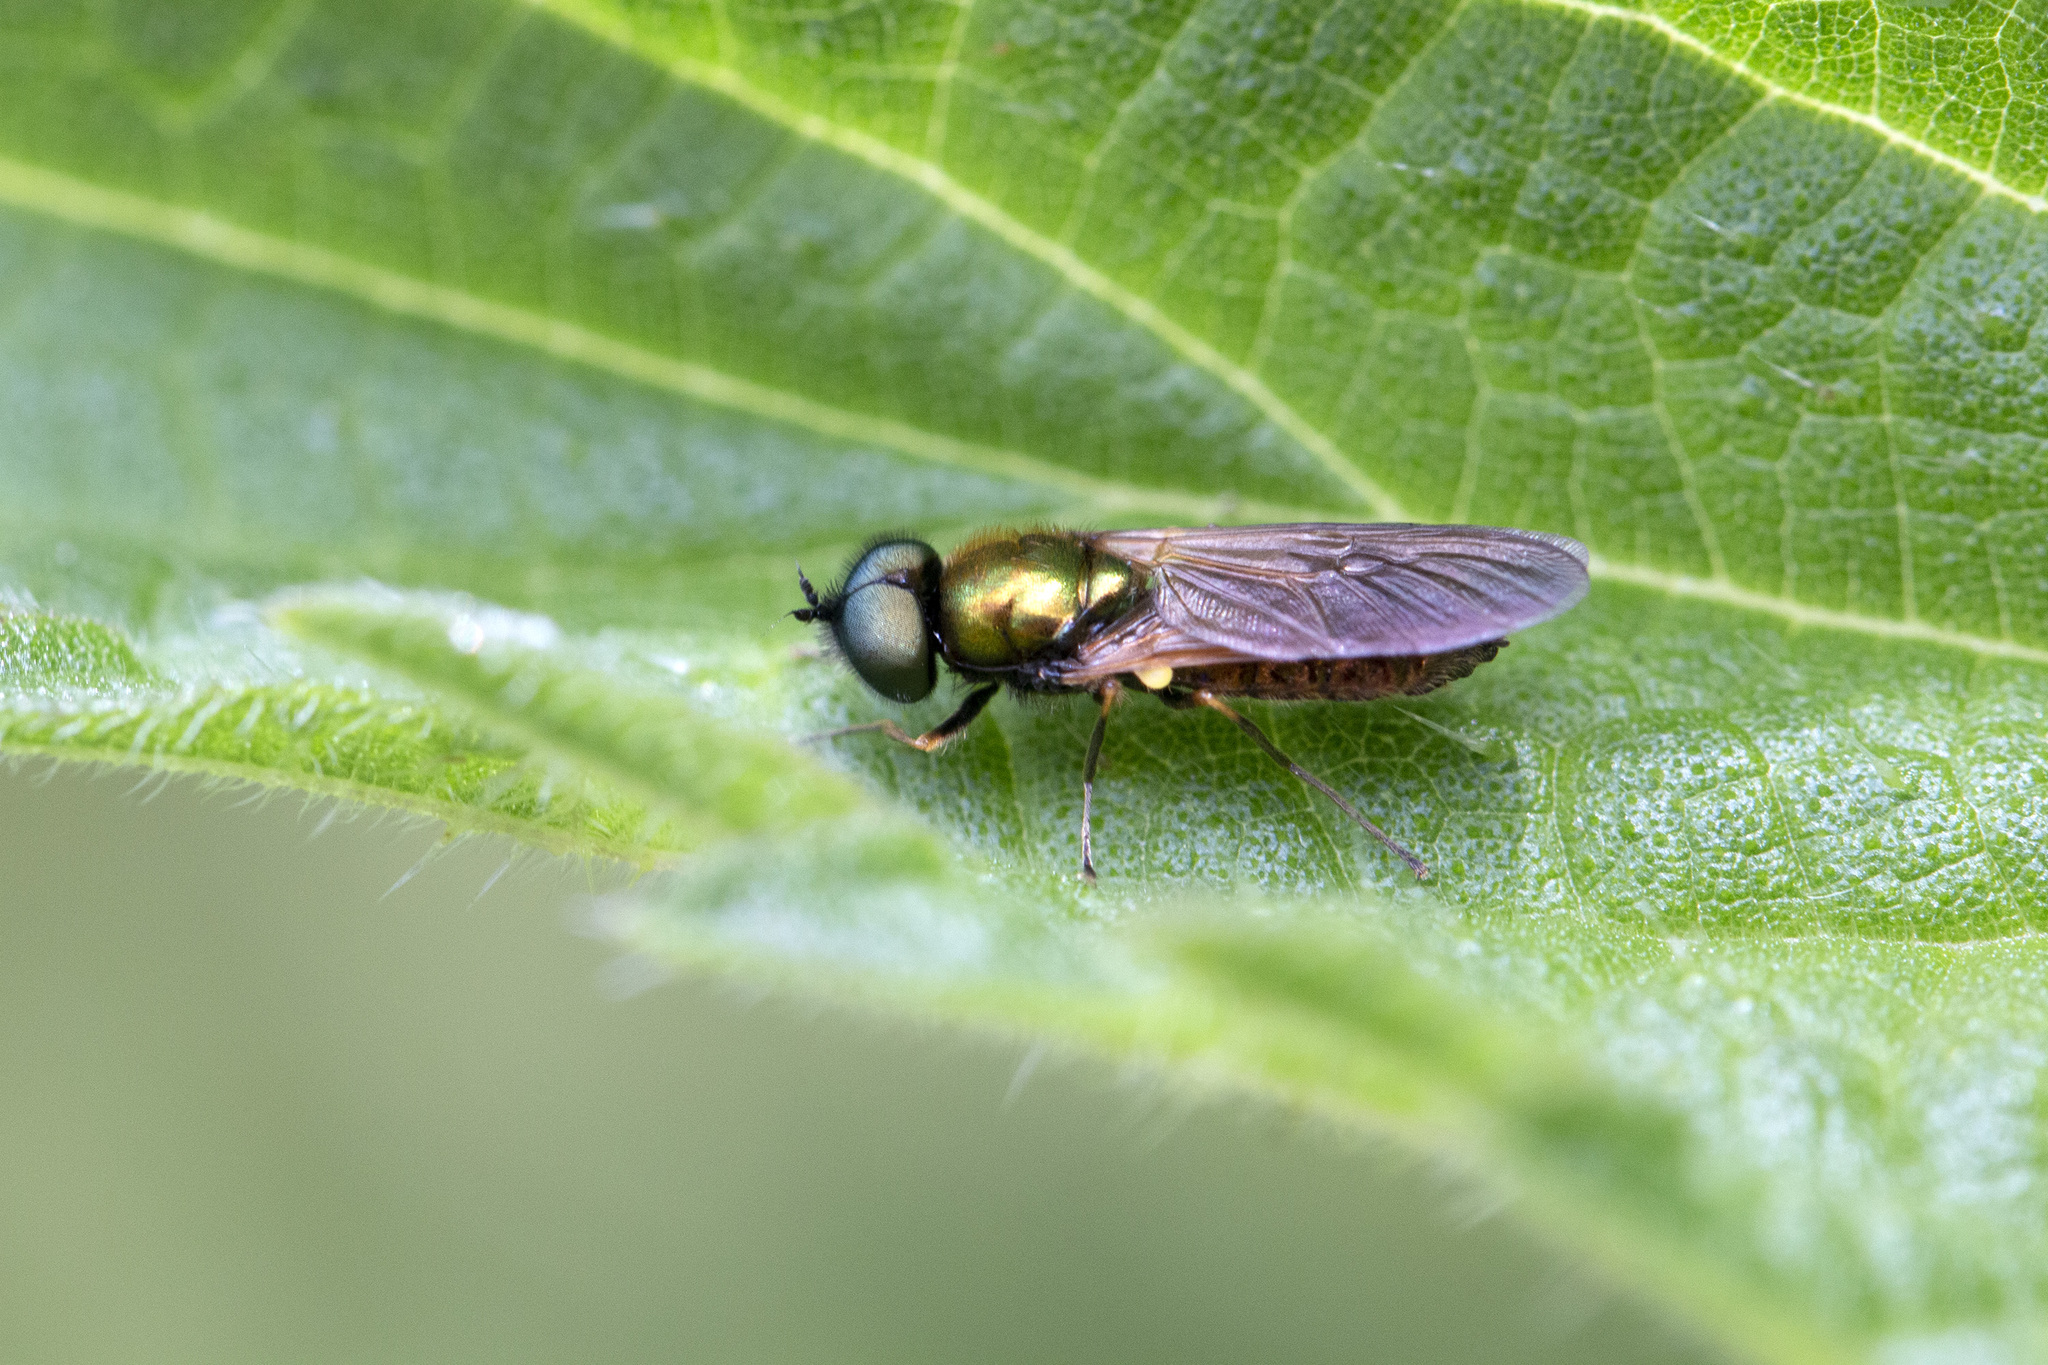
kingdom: Animalia
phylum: Arthropoda
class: Insecta
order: Diptera
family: Stratiomyidae
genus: Chloromyia
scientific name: Chloromyia formosa
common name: Soldier fly
